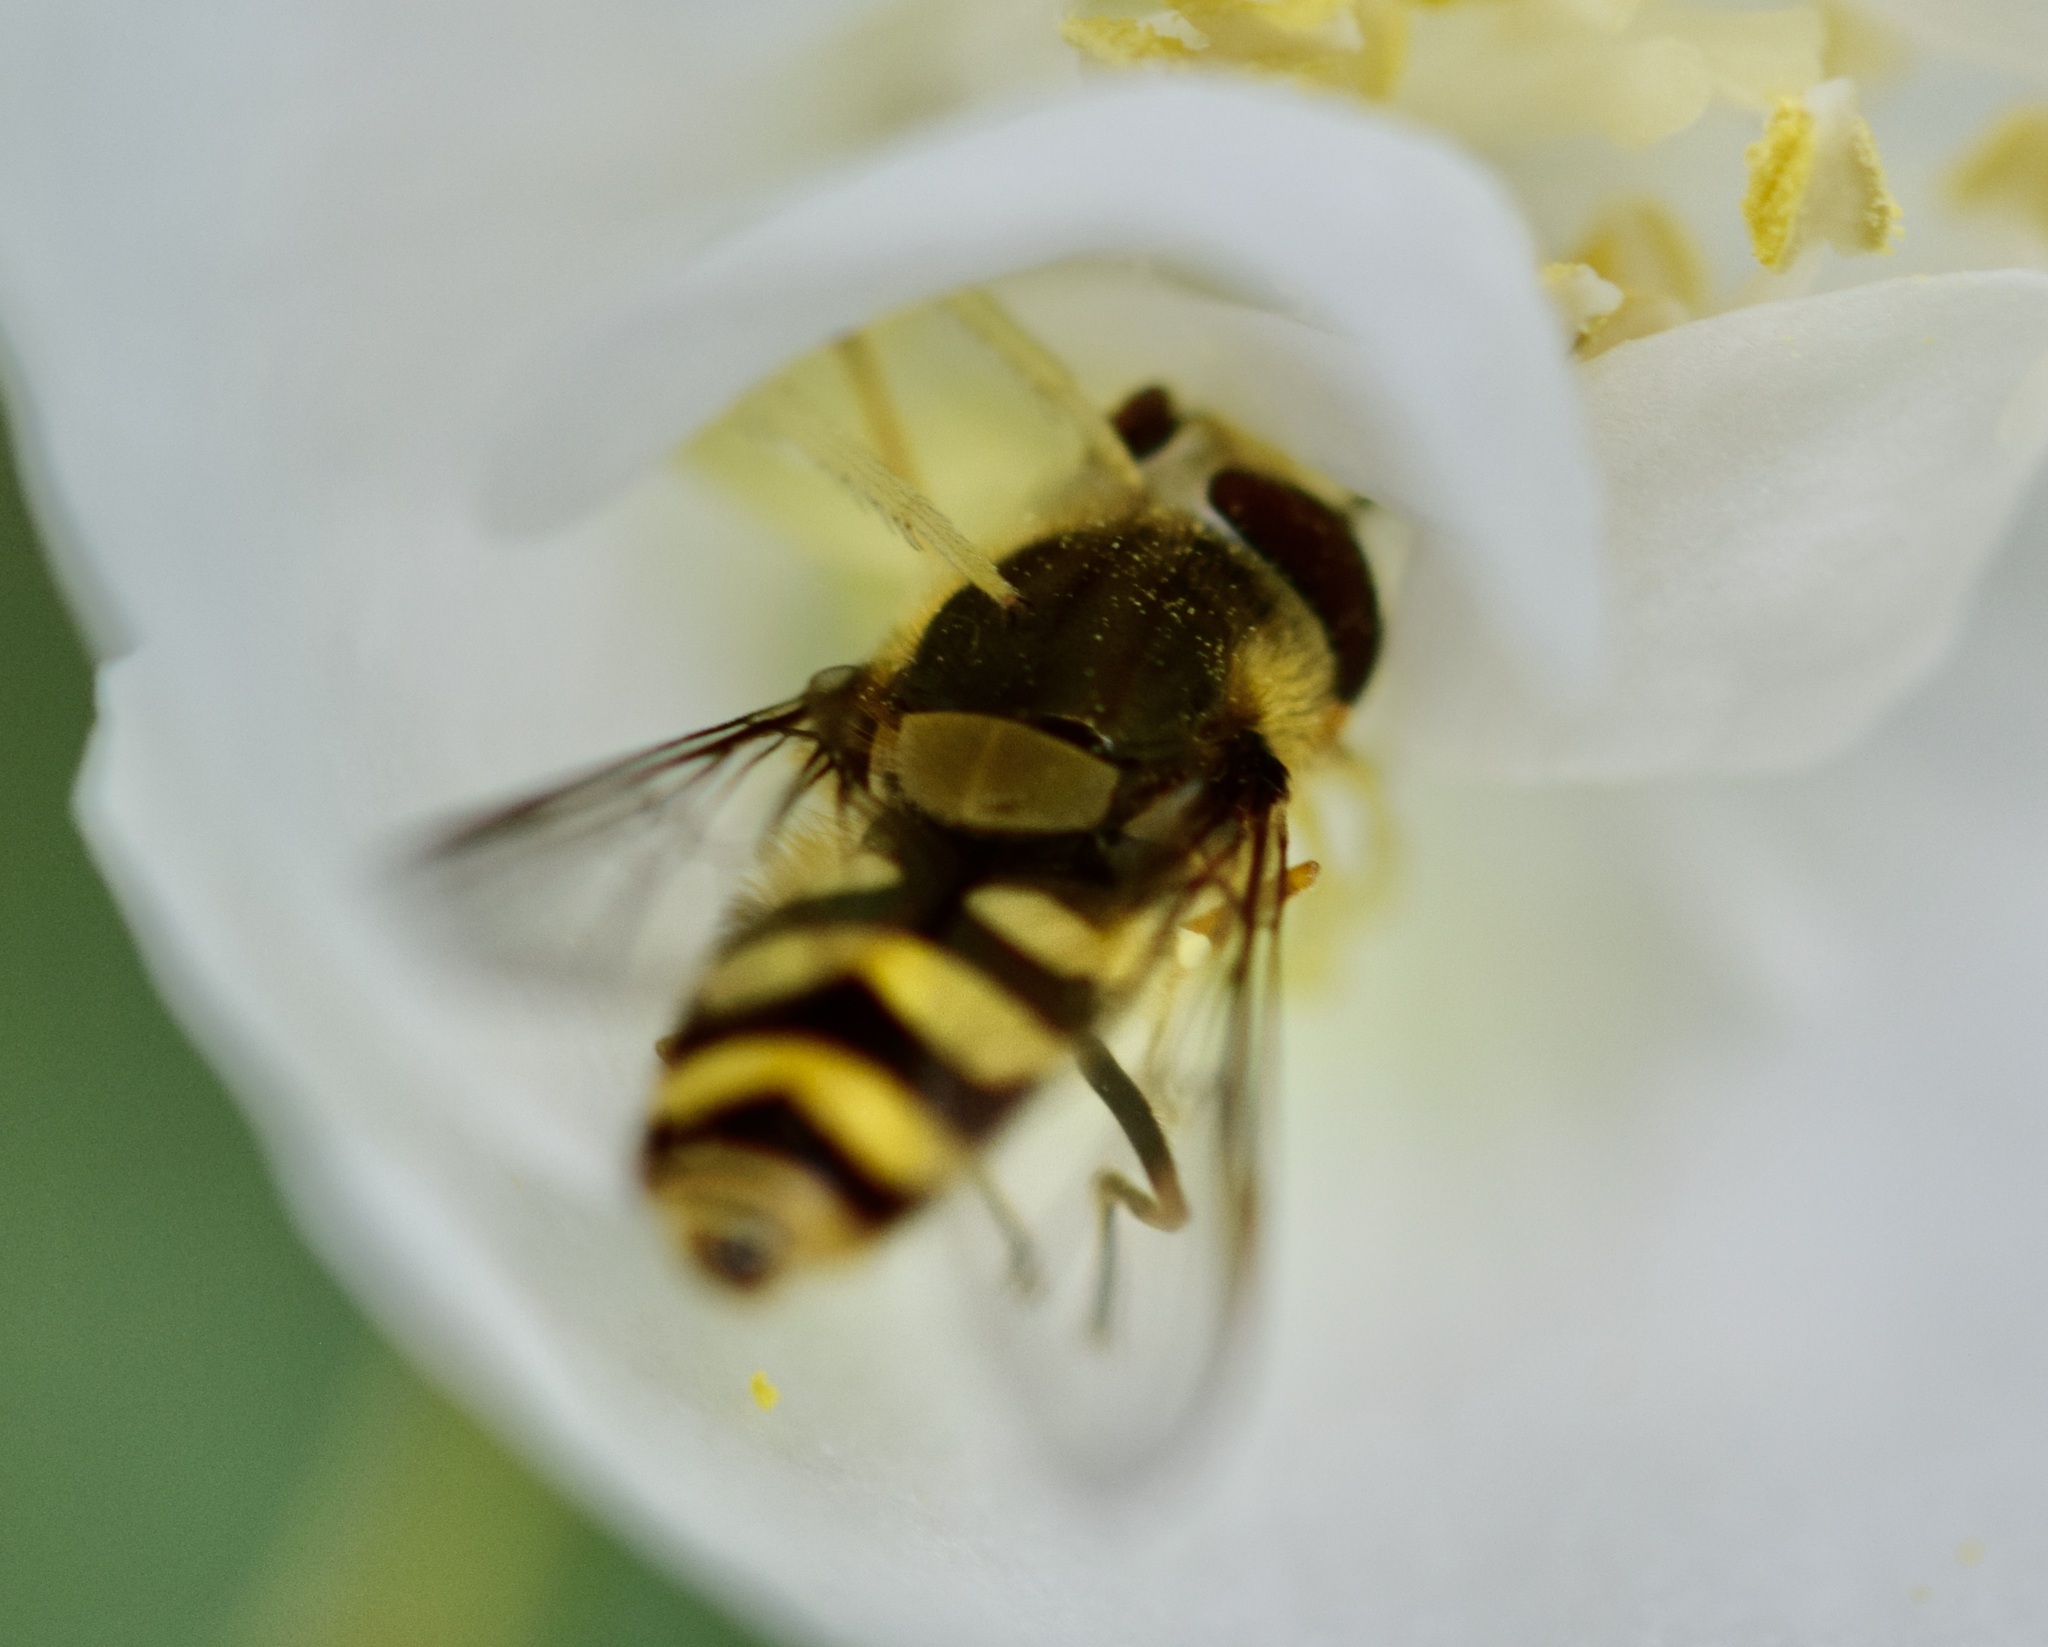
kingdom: Animalia
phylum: Arthropoda
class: Insecta
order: Diptera
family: Syrphidae
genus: Syrphus
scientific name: Syrphus
